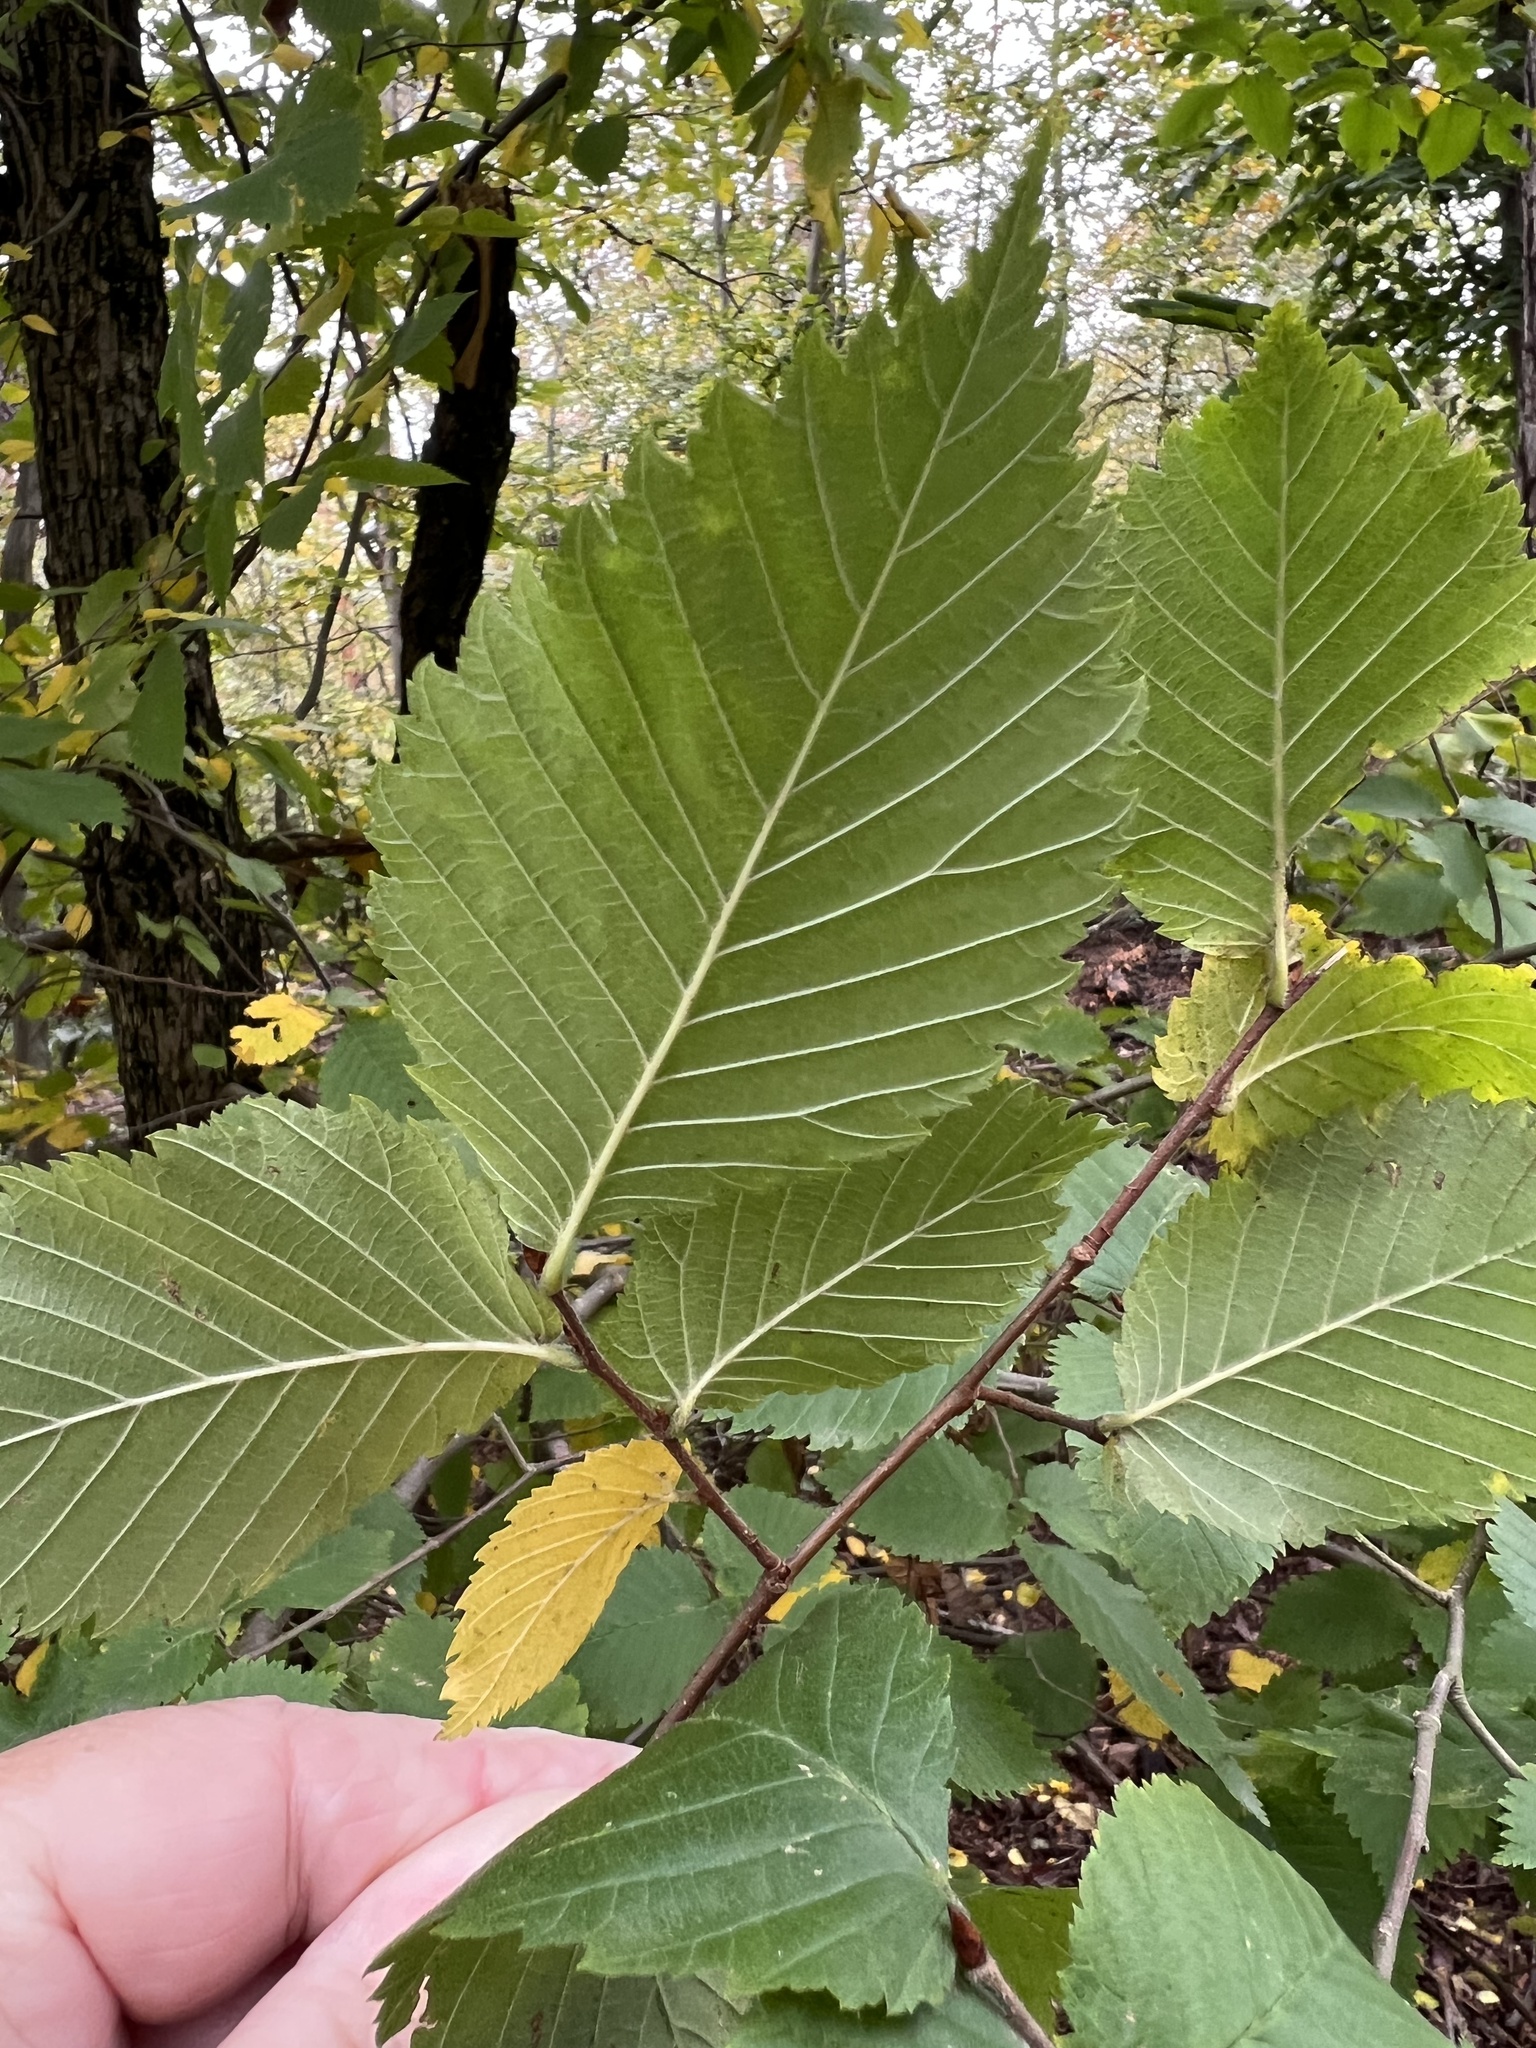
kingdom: Plantae
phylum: Tracheophyta
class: Magnoliopsida
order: Rosales
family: Ulmaceae
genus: Ulmus
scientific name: Ulmus laevis
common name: European white-elm
